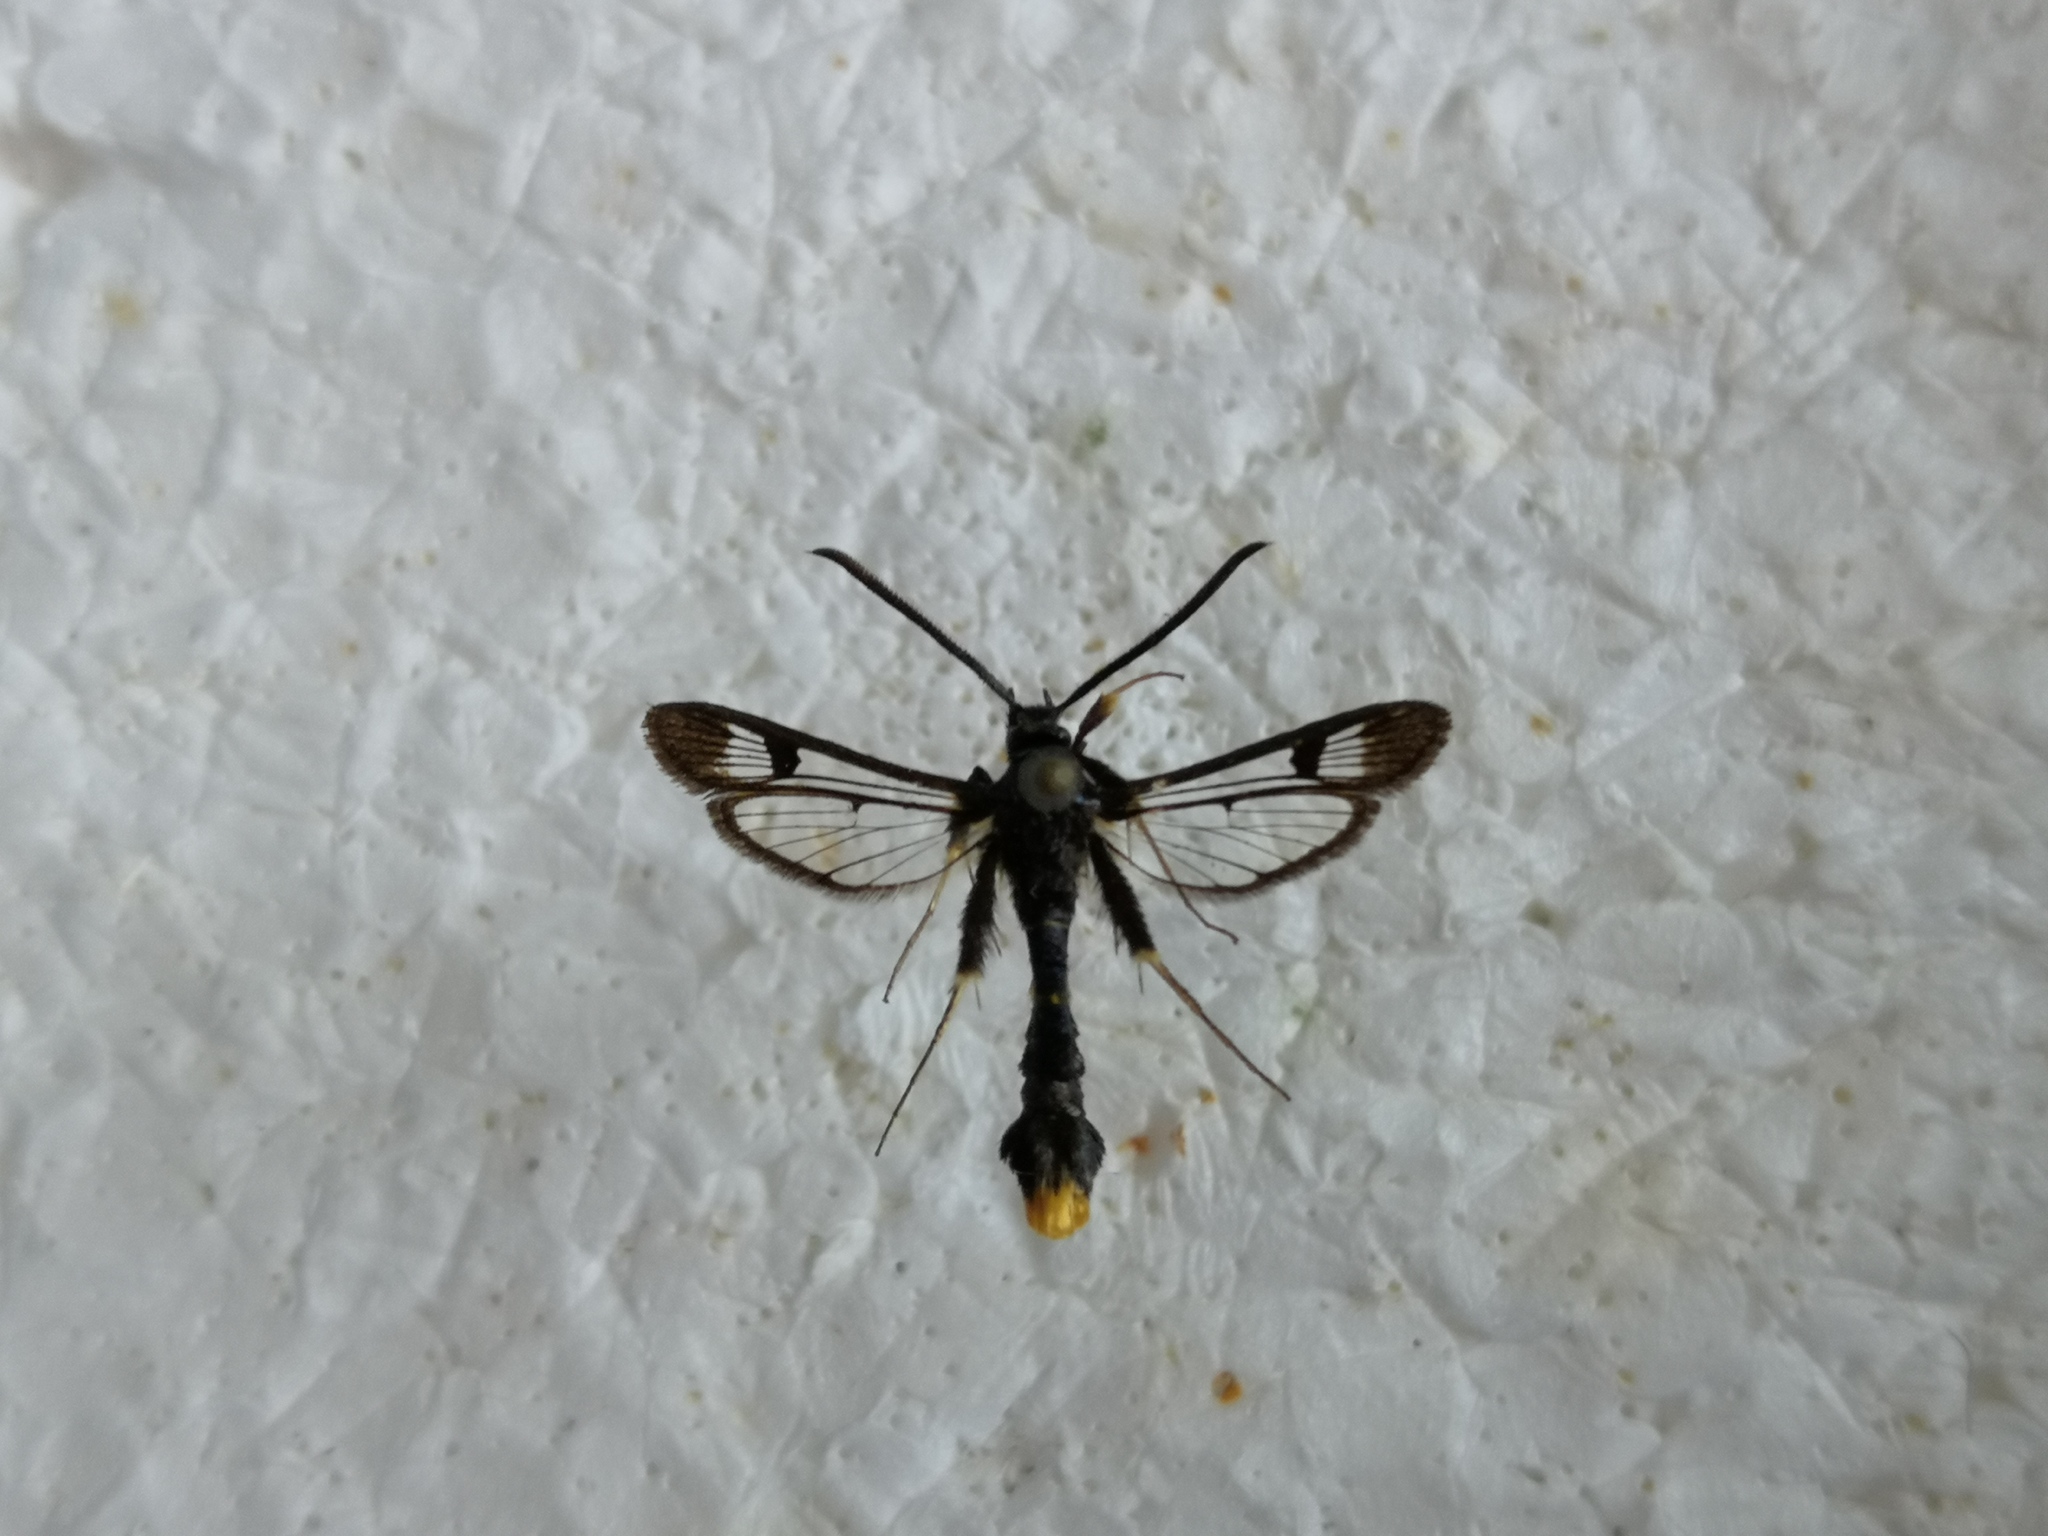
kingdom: Animalia
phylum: Arthropoda
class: Insecta
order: Lepidoptera
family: Sesiidae
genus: Synanthedon
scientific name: Synanthedon andrenaeformis
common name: Orange-tailed clearwing
